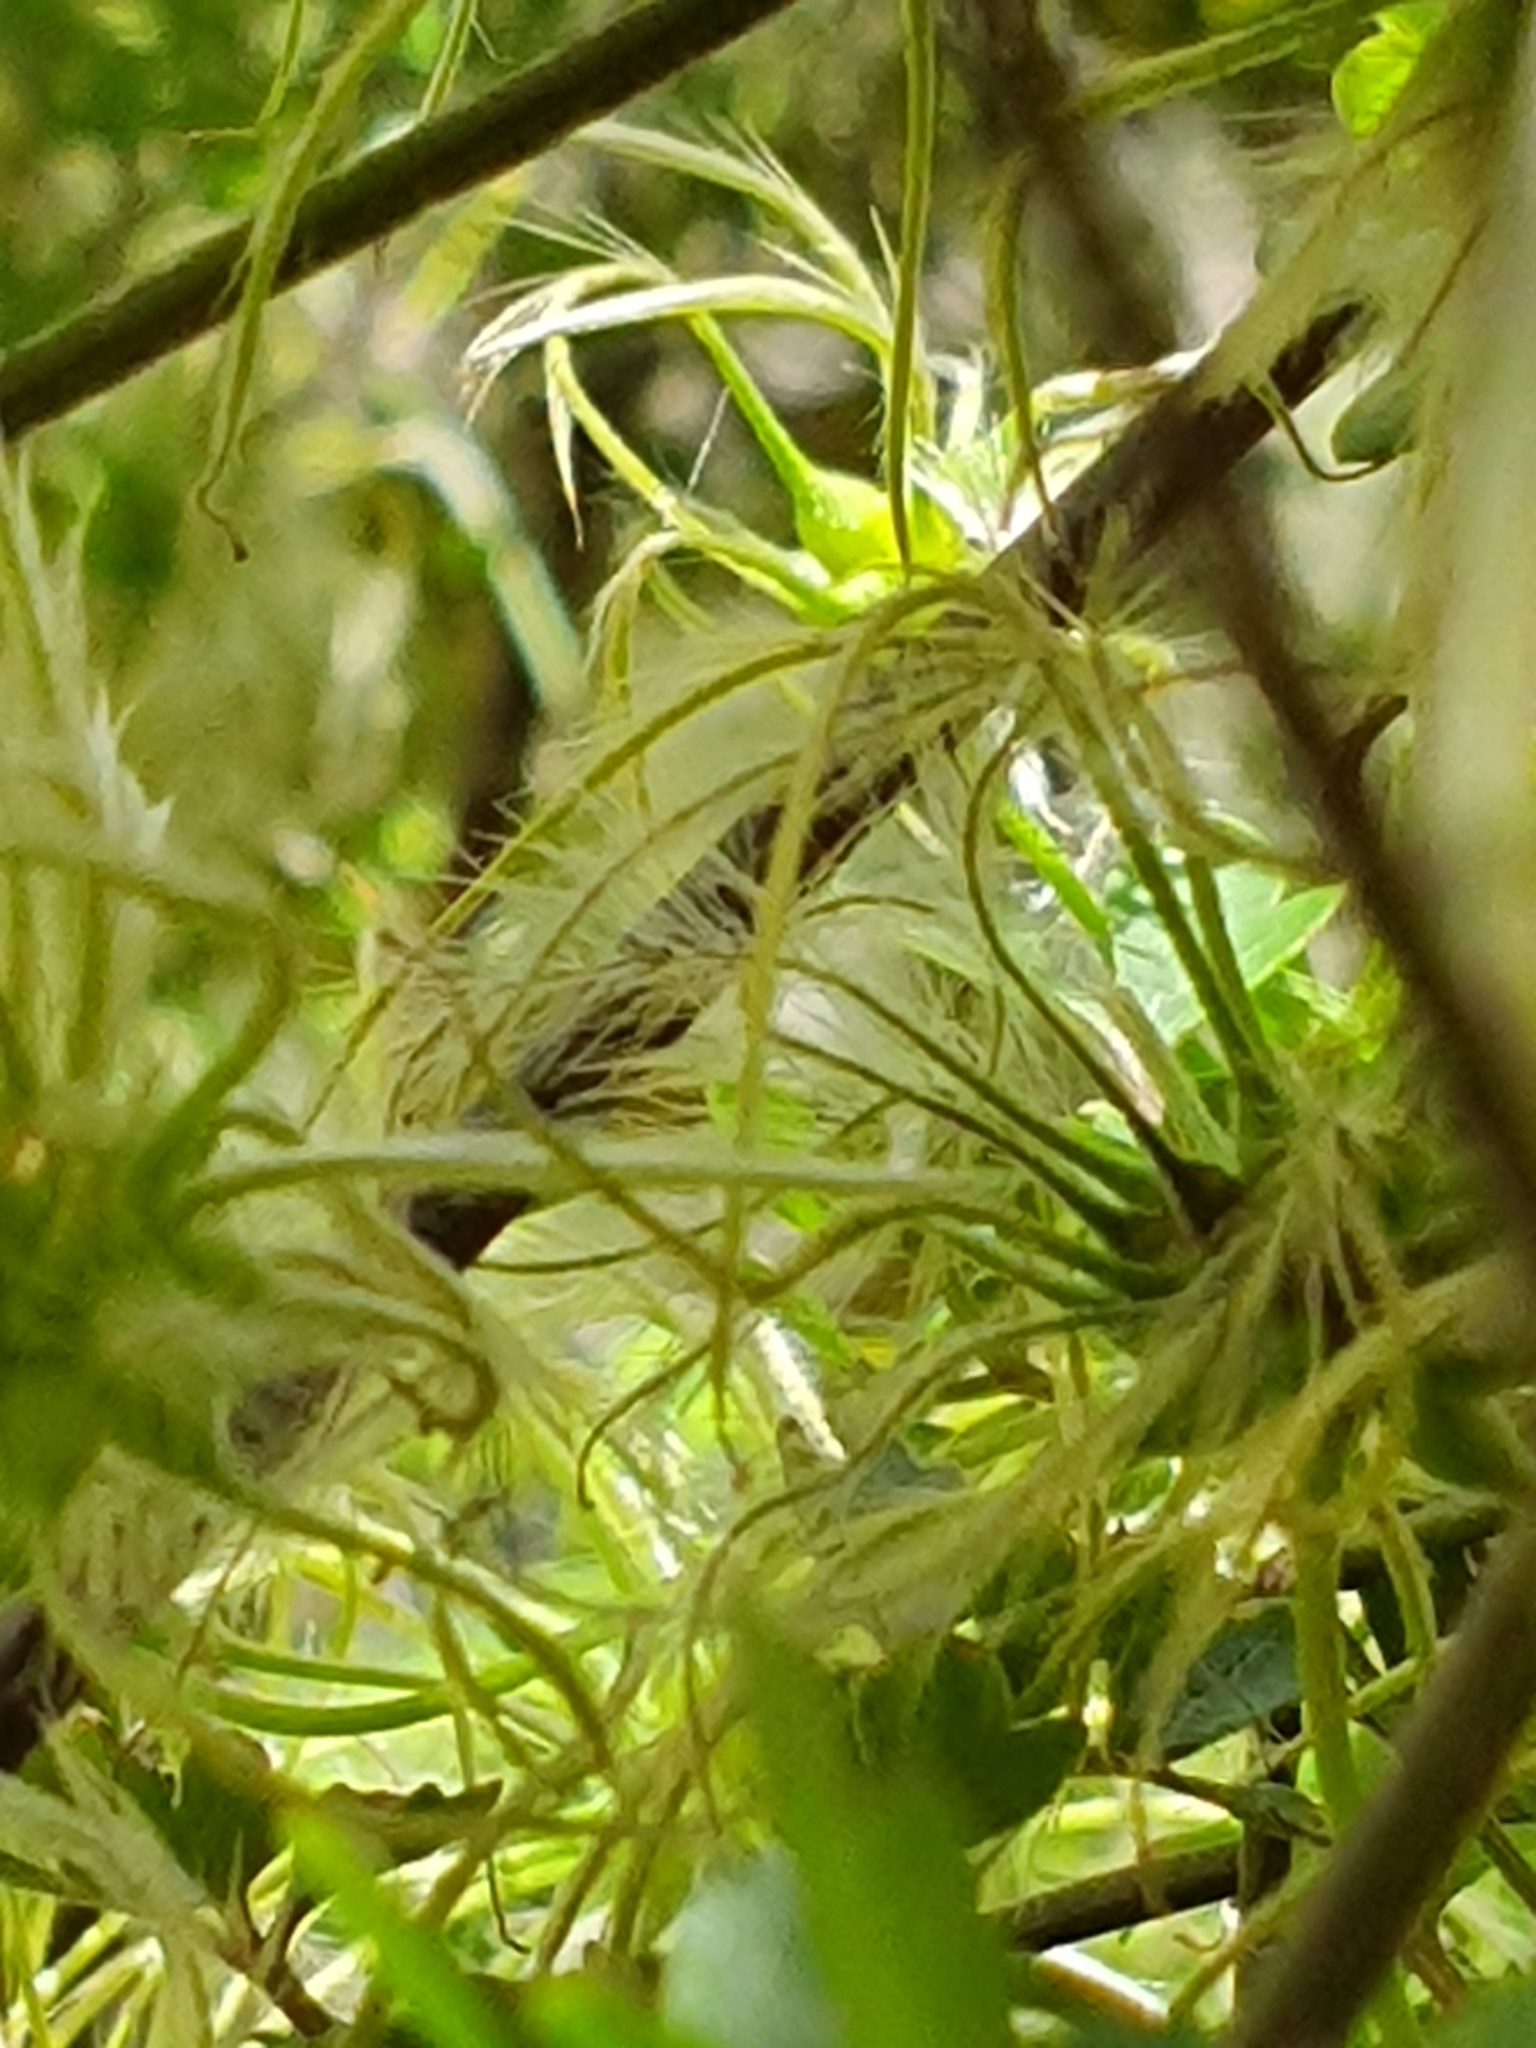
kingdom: Plantae
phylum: Tracheophyta
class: Magnoliopsida
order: Ranunculales
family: Ranunculaceae
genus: Clematis
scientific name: Clematis forsteri
